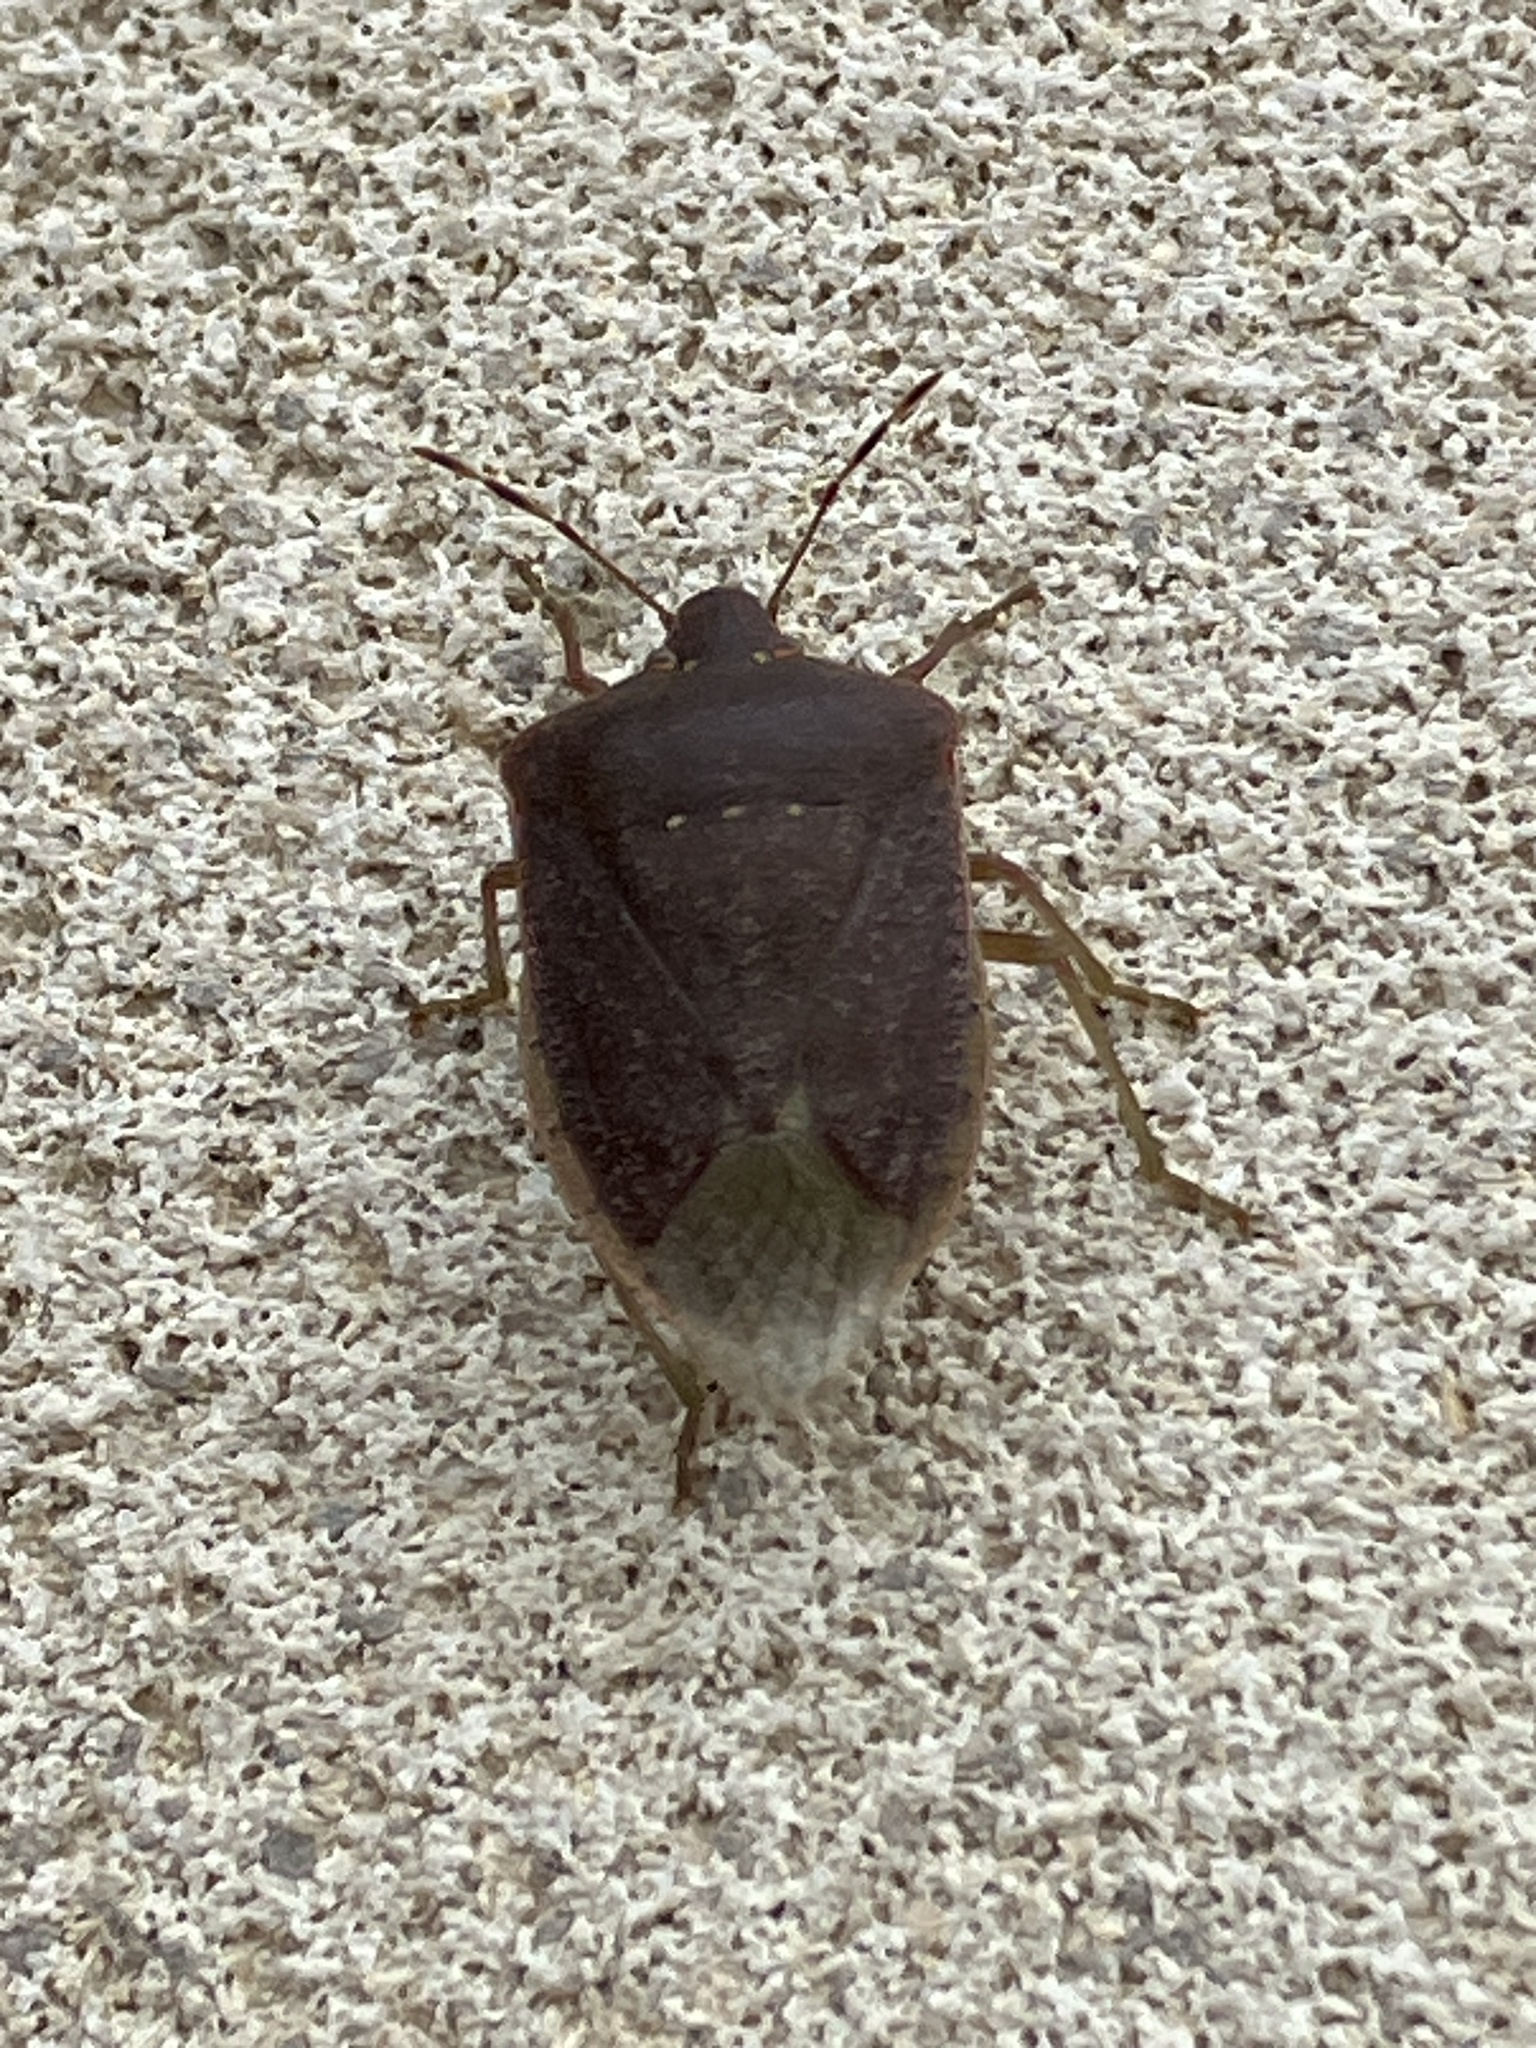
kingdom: Animalia
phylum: Arthropoda
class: Insecta
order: Hemiptera
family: Pentatomidae
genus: Nezara
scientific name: Nezara viridula
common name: Southern green stink bug
